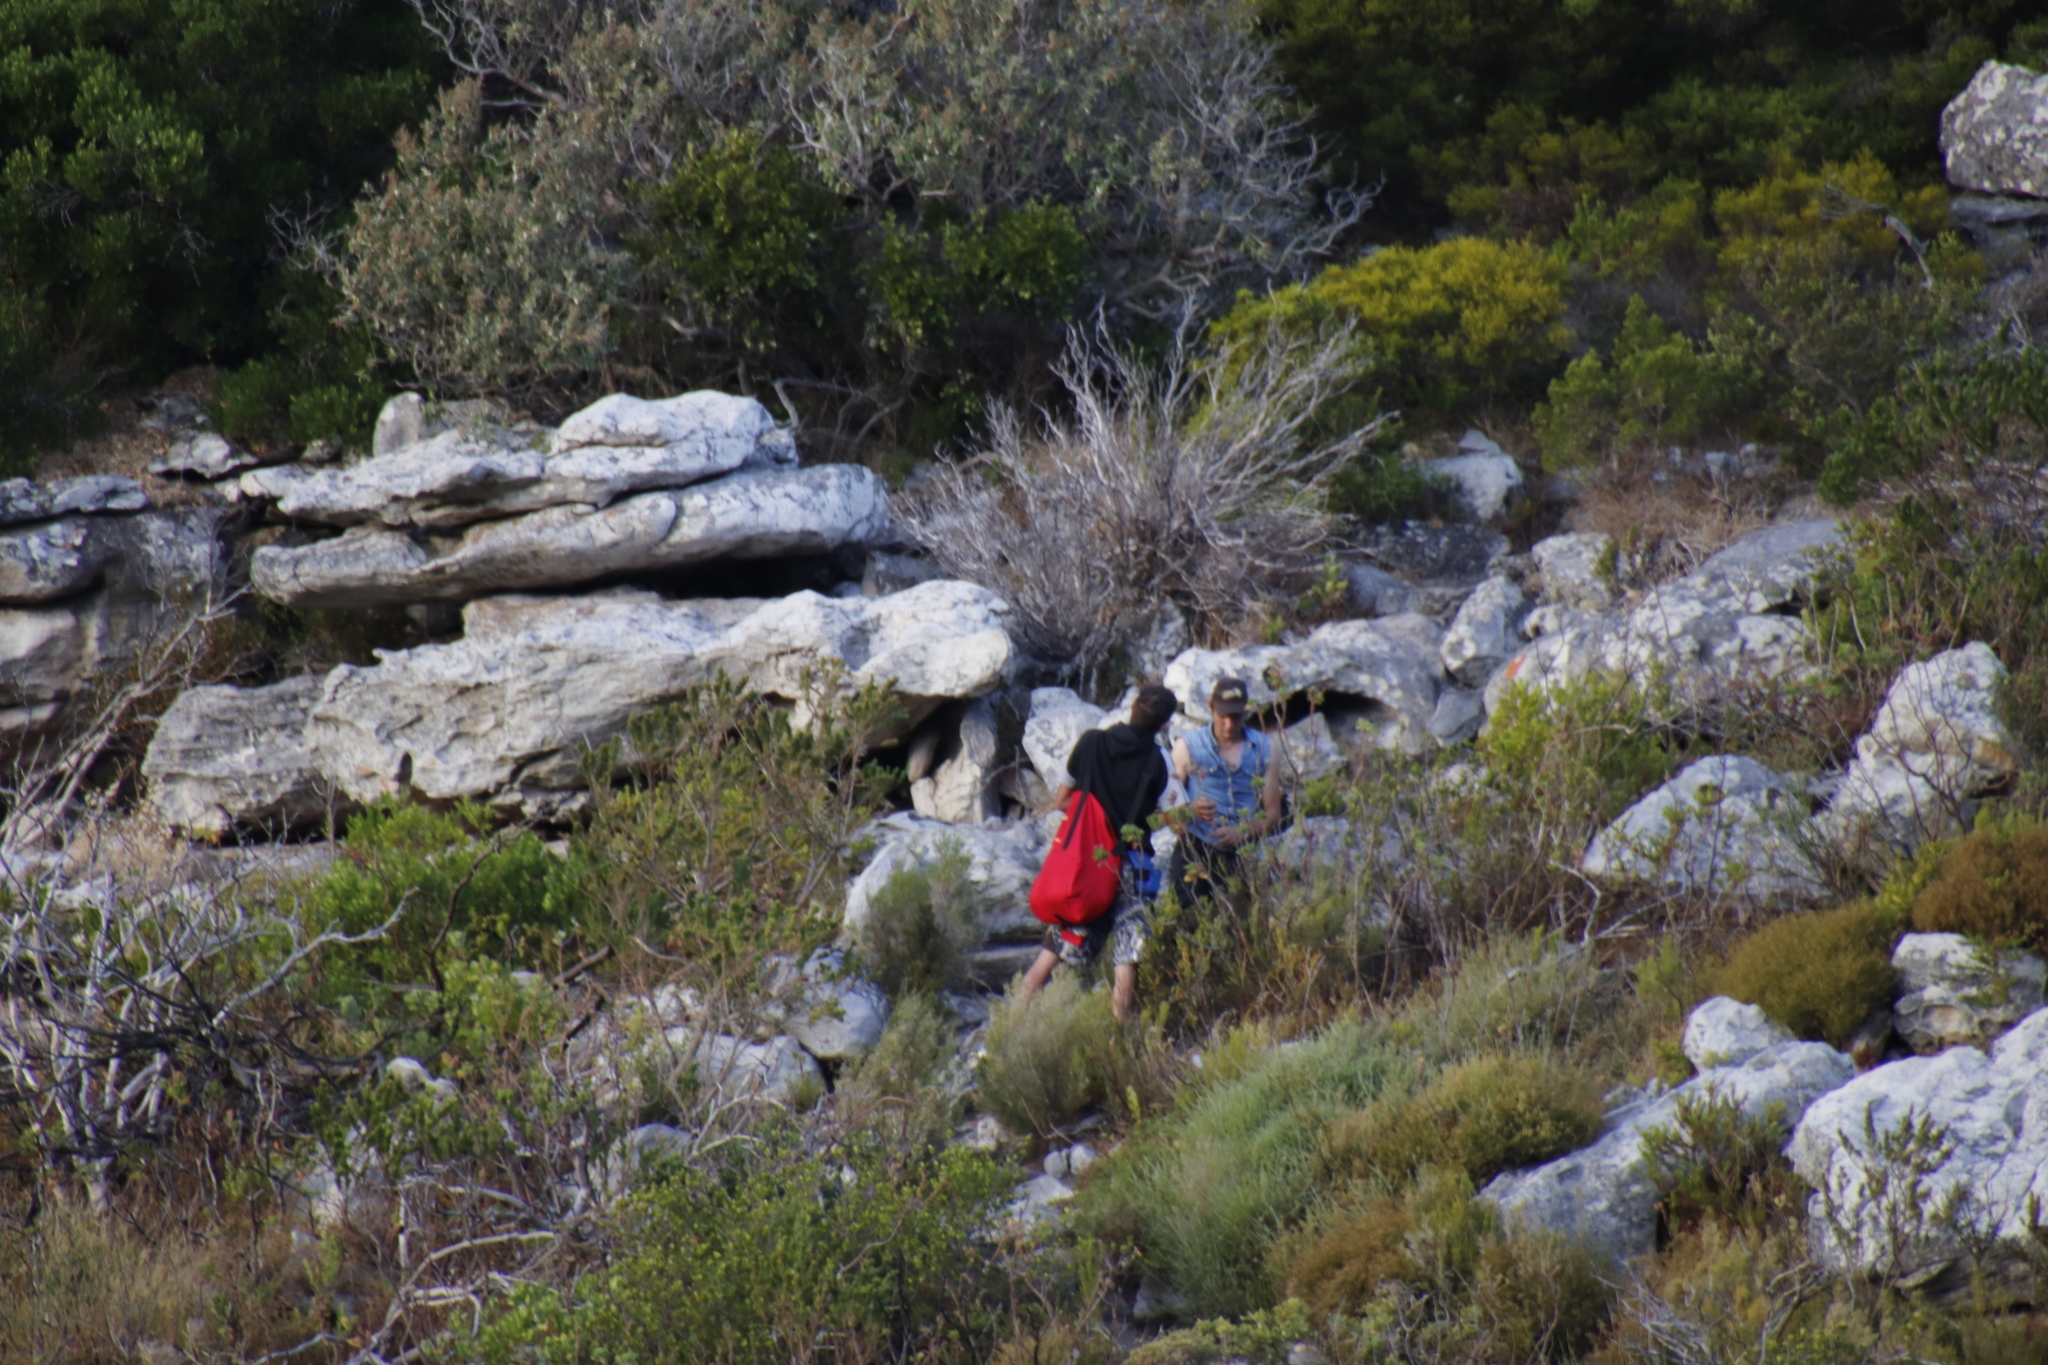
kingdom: Plantae
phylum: Tracheophyta
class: Liliopsida
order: Poales
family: Poaceae
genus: Pseudopentameris
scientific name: Pseudopentameris macrantha
